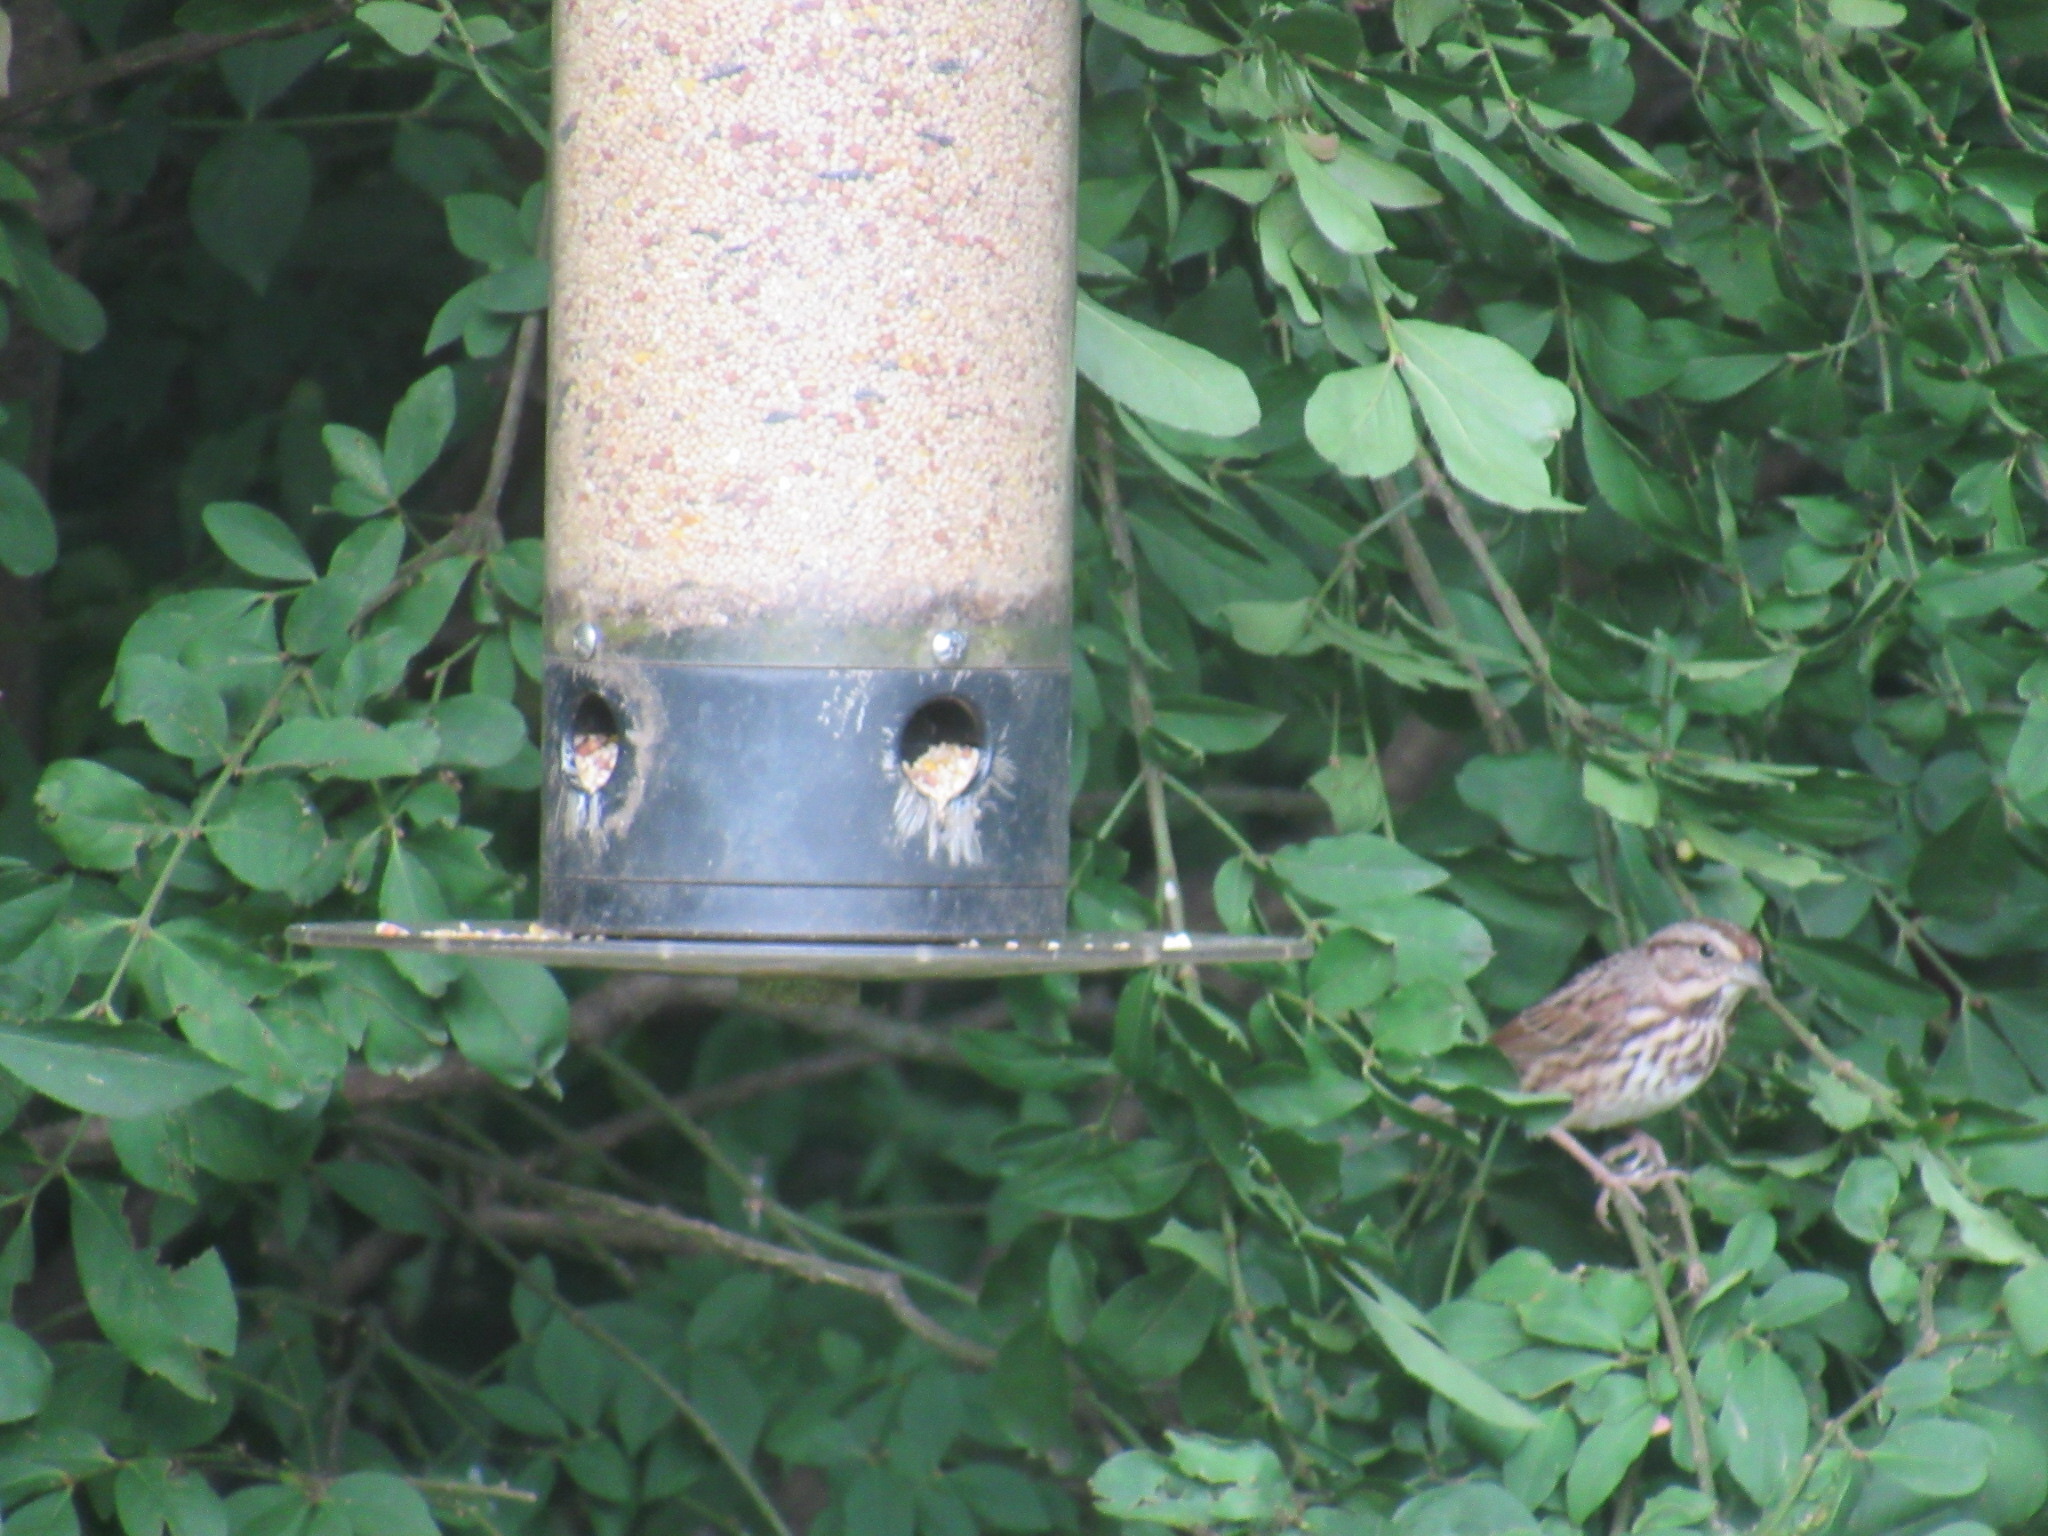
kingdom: Animalia
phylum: Chordata
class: Aves
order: Passeriformes
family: Passerellidae
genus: Melospiza
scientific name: Melospiza melodia
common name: Song sparrow
